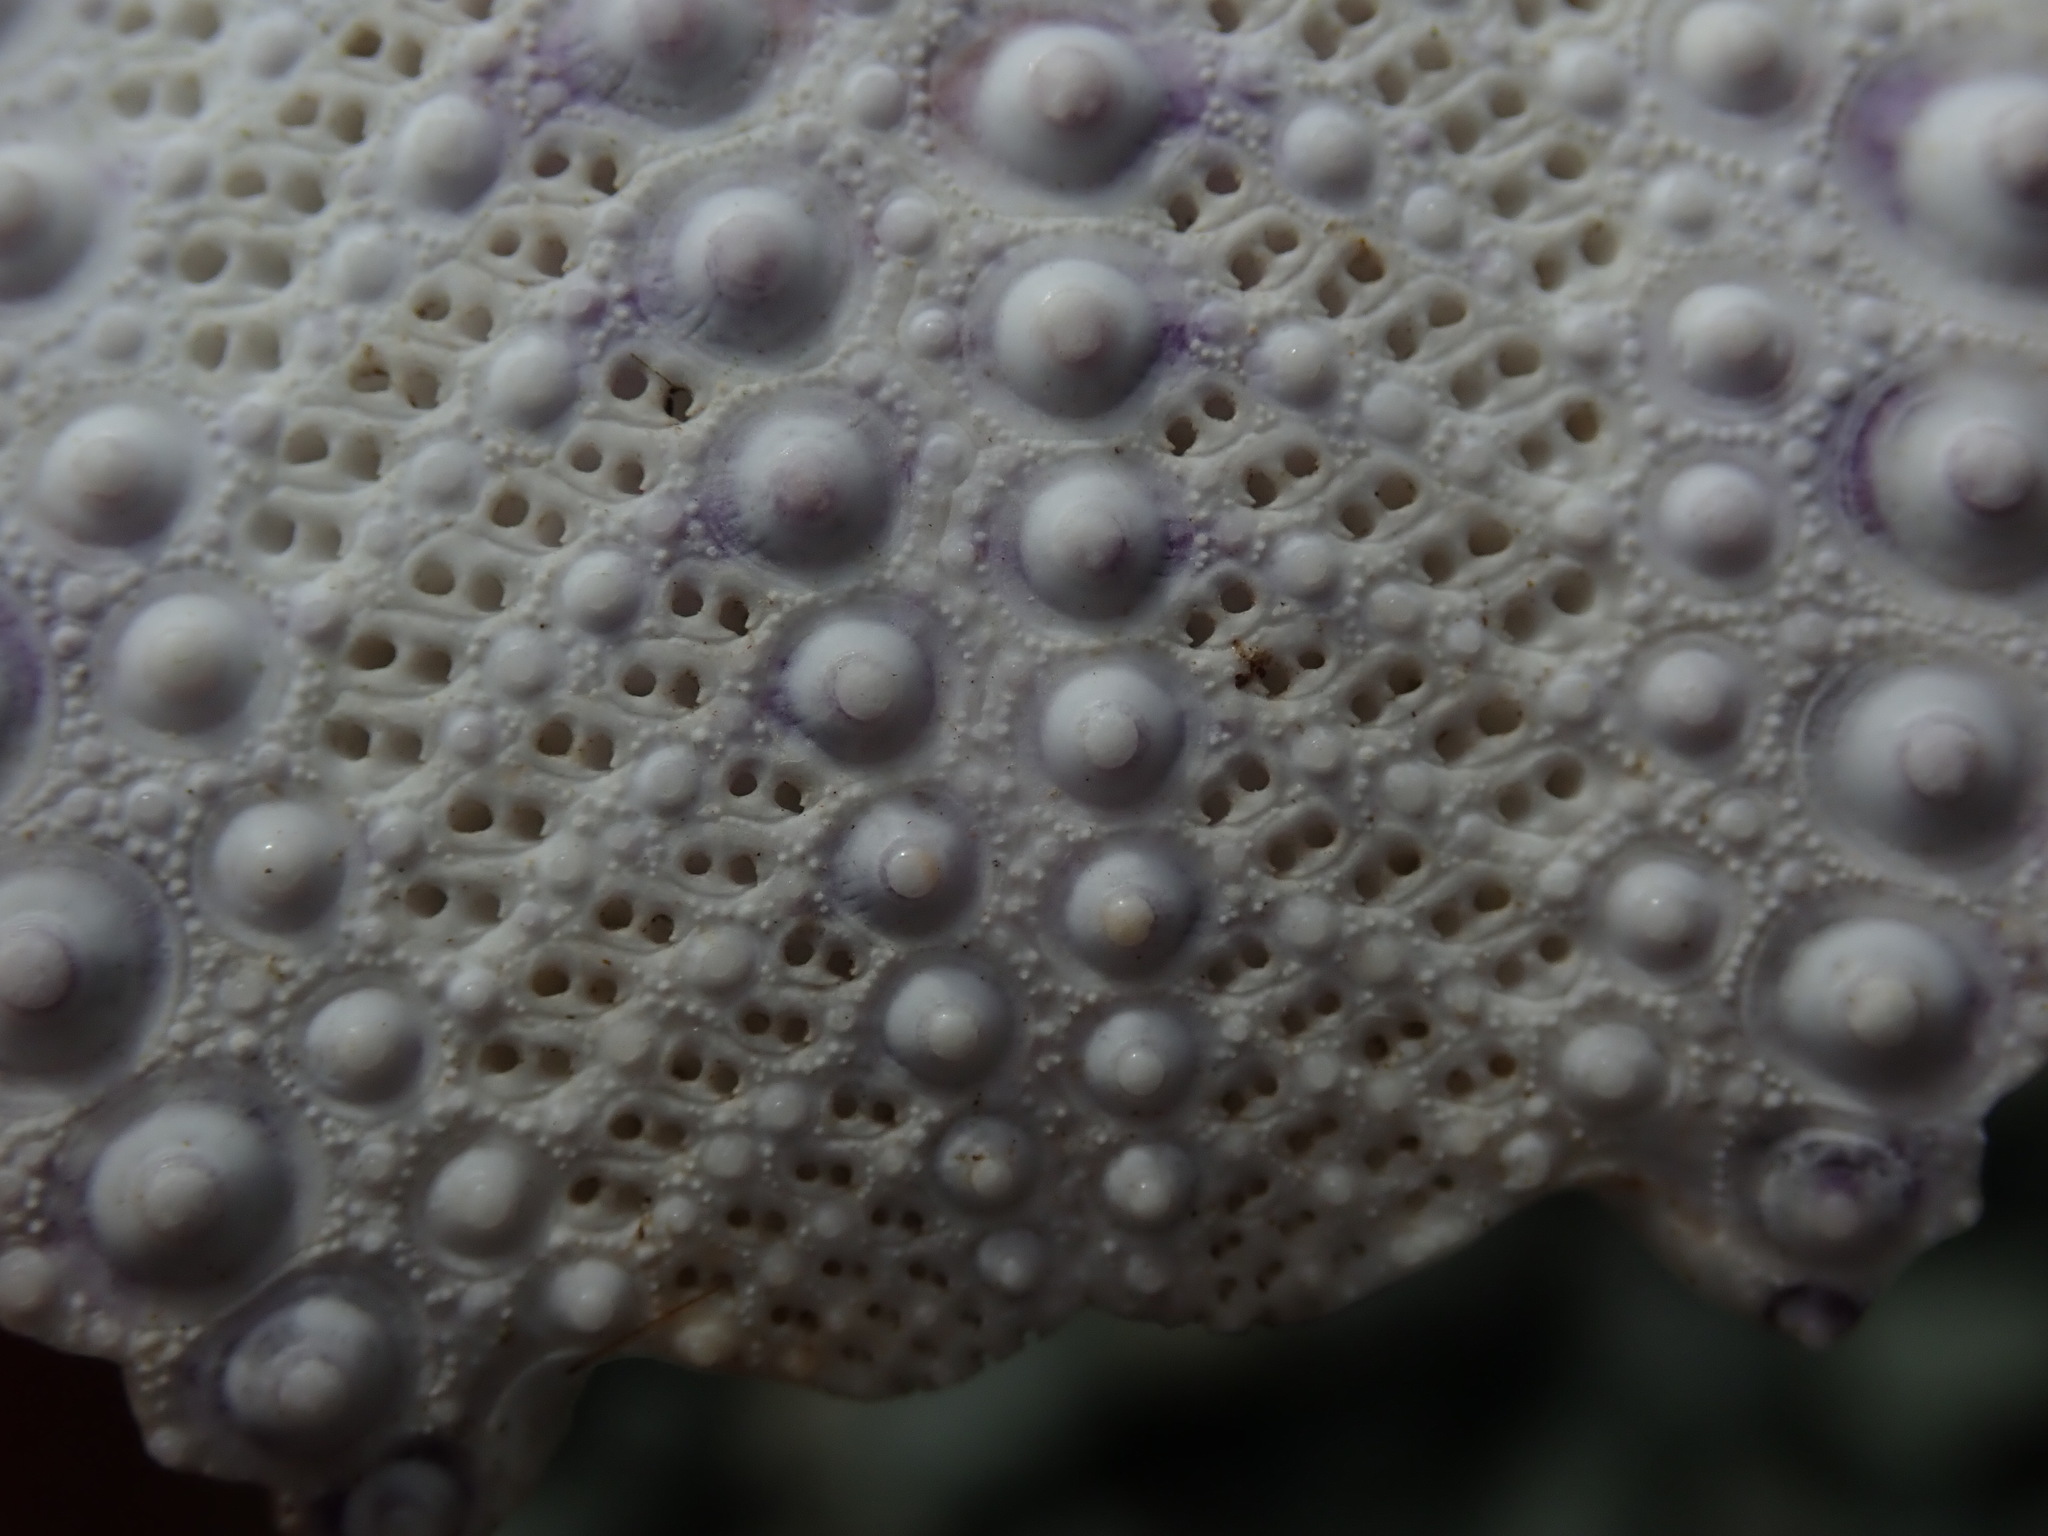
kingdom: Animalia
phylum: Echinodermata
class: Echinoidea
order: Camarodonta
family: Strongylocentrotidae
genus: Mesocentrotus
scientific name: Mesocentrotus franciscanus
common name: Red sea urchin
